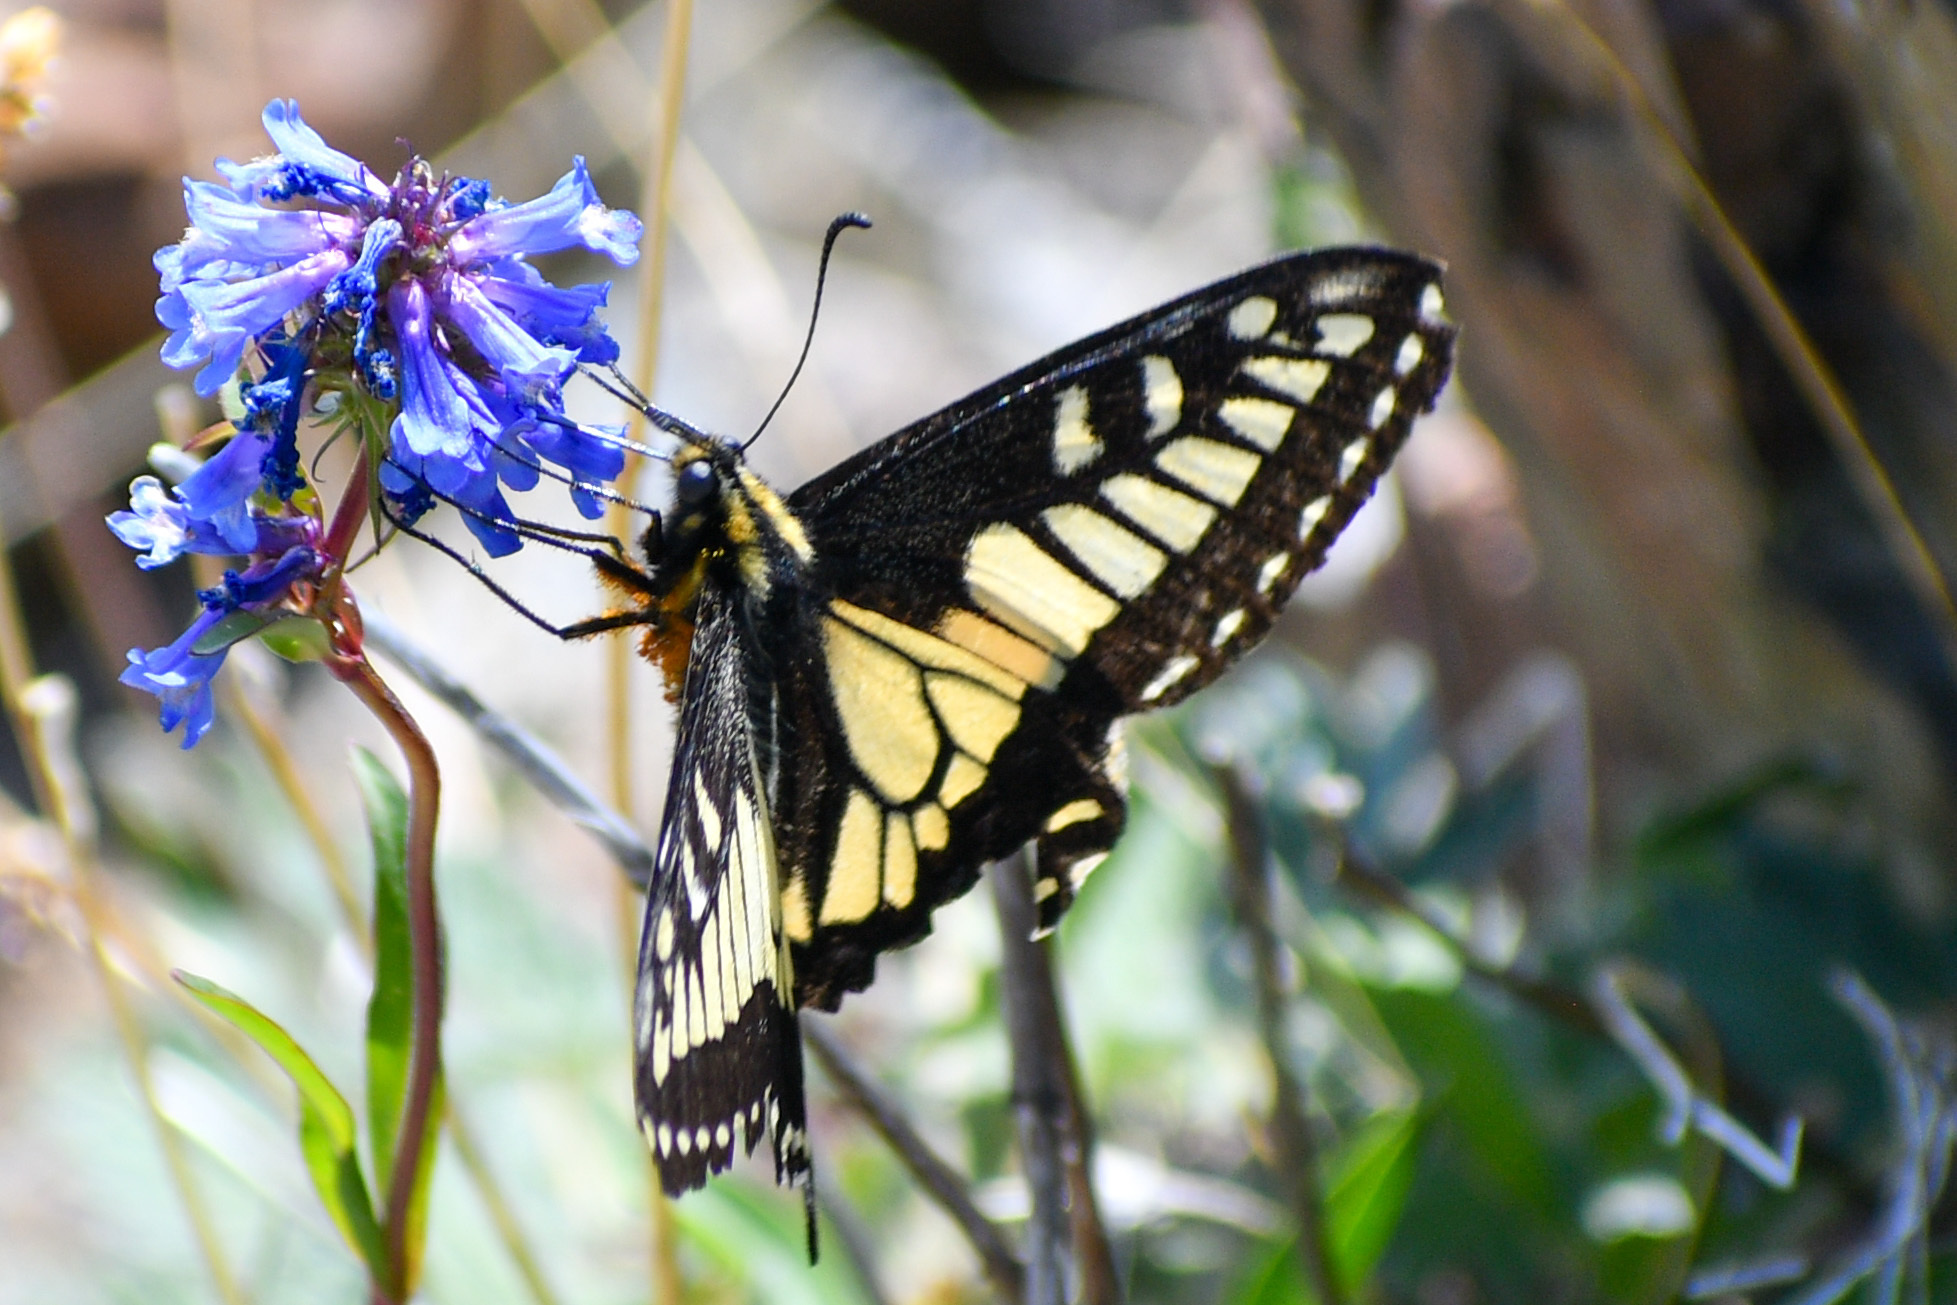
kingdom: Animalia
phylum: Arthropoda
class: Insecta
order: Lepidoptera
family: Papilionidae
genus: Papilio
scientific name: Papilio zelicaon
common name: Anise swallowtail
